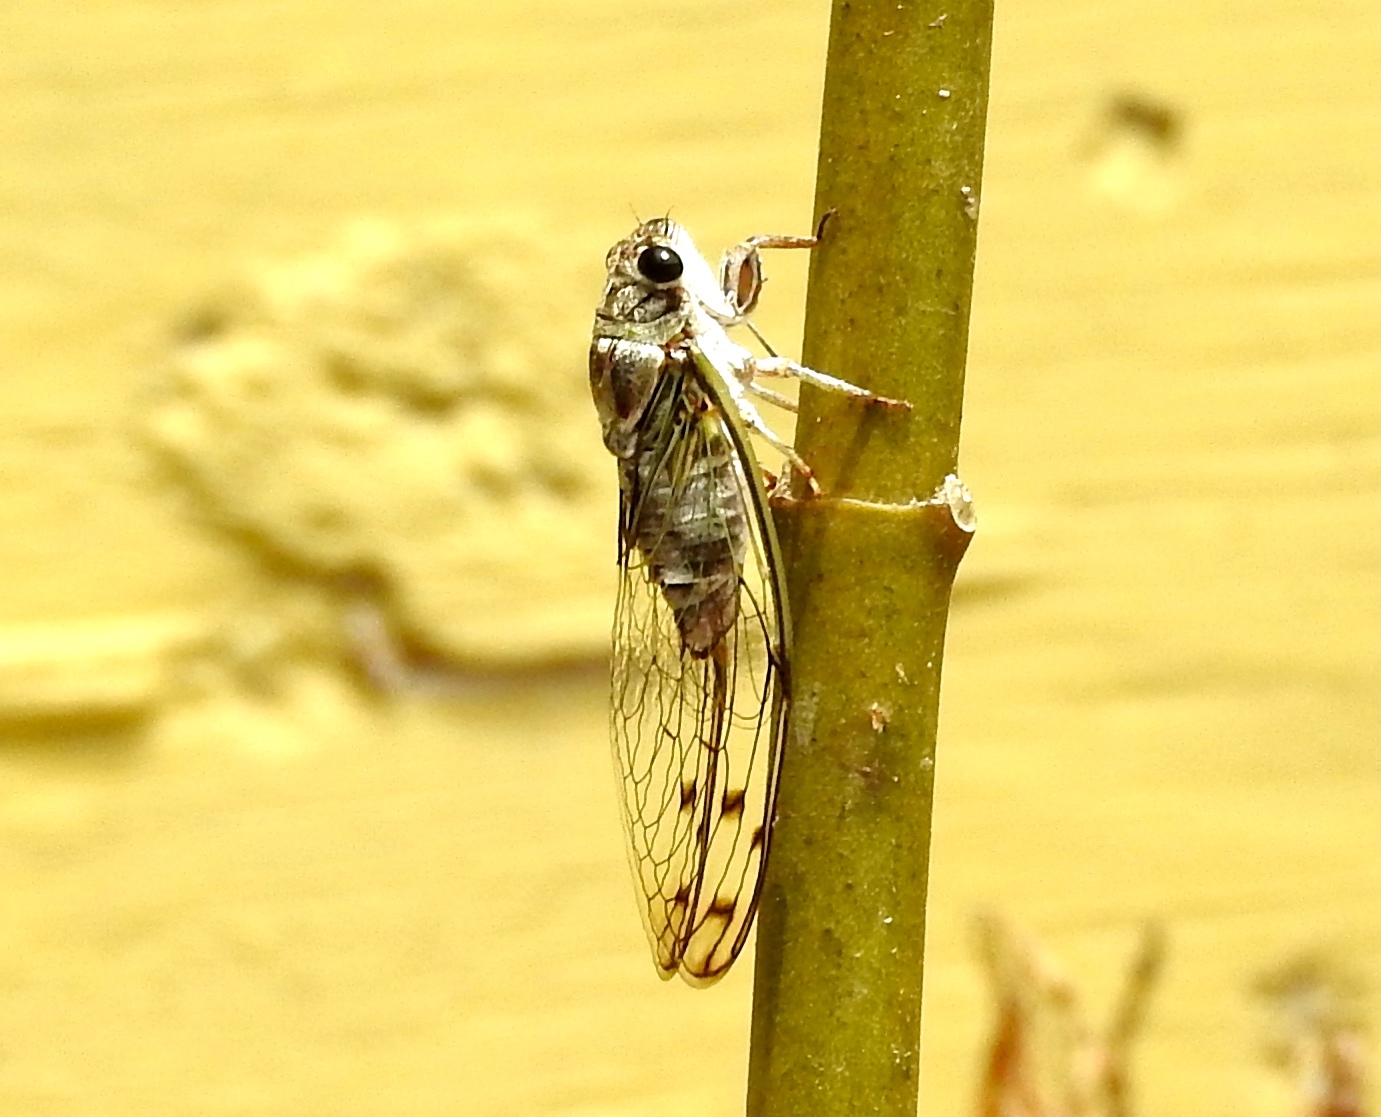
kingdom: Animalia
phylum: Arthropoda
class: Insecta
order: Hemiptera
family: Cicadidae
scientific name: Cicadidae
